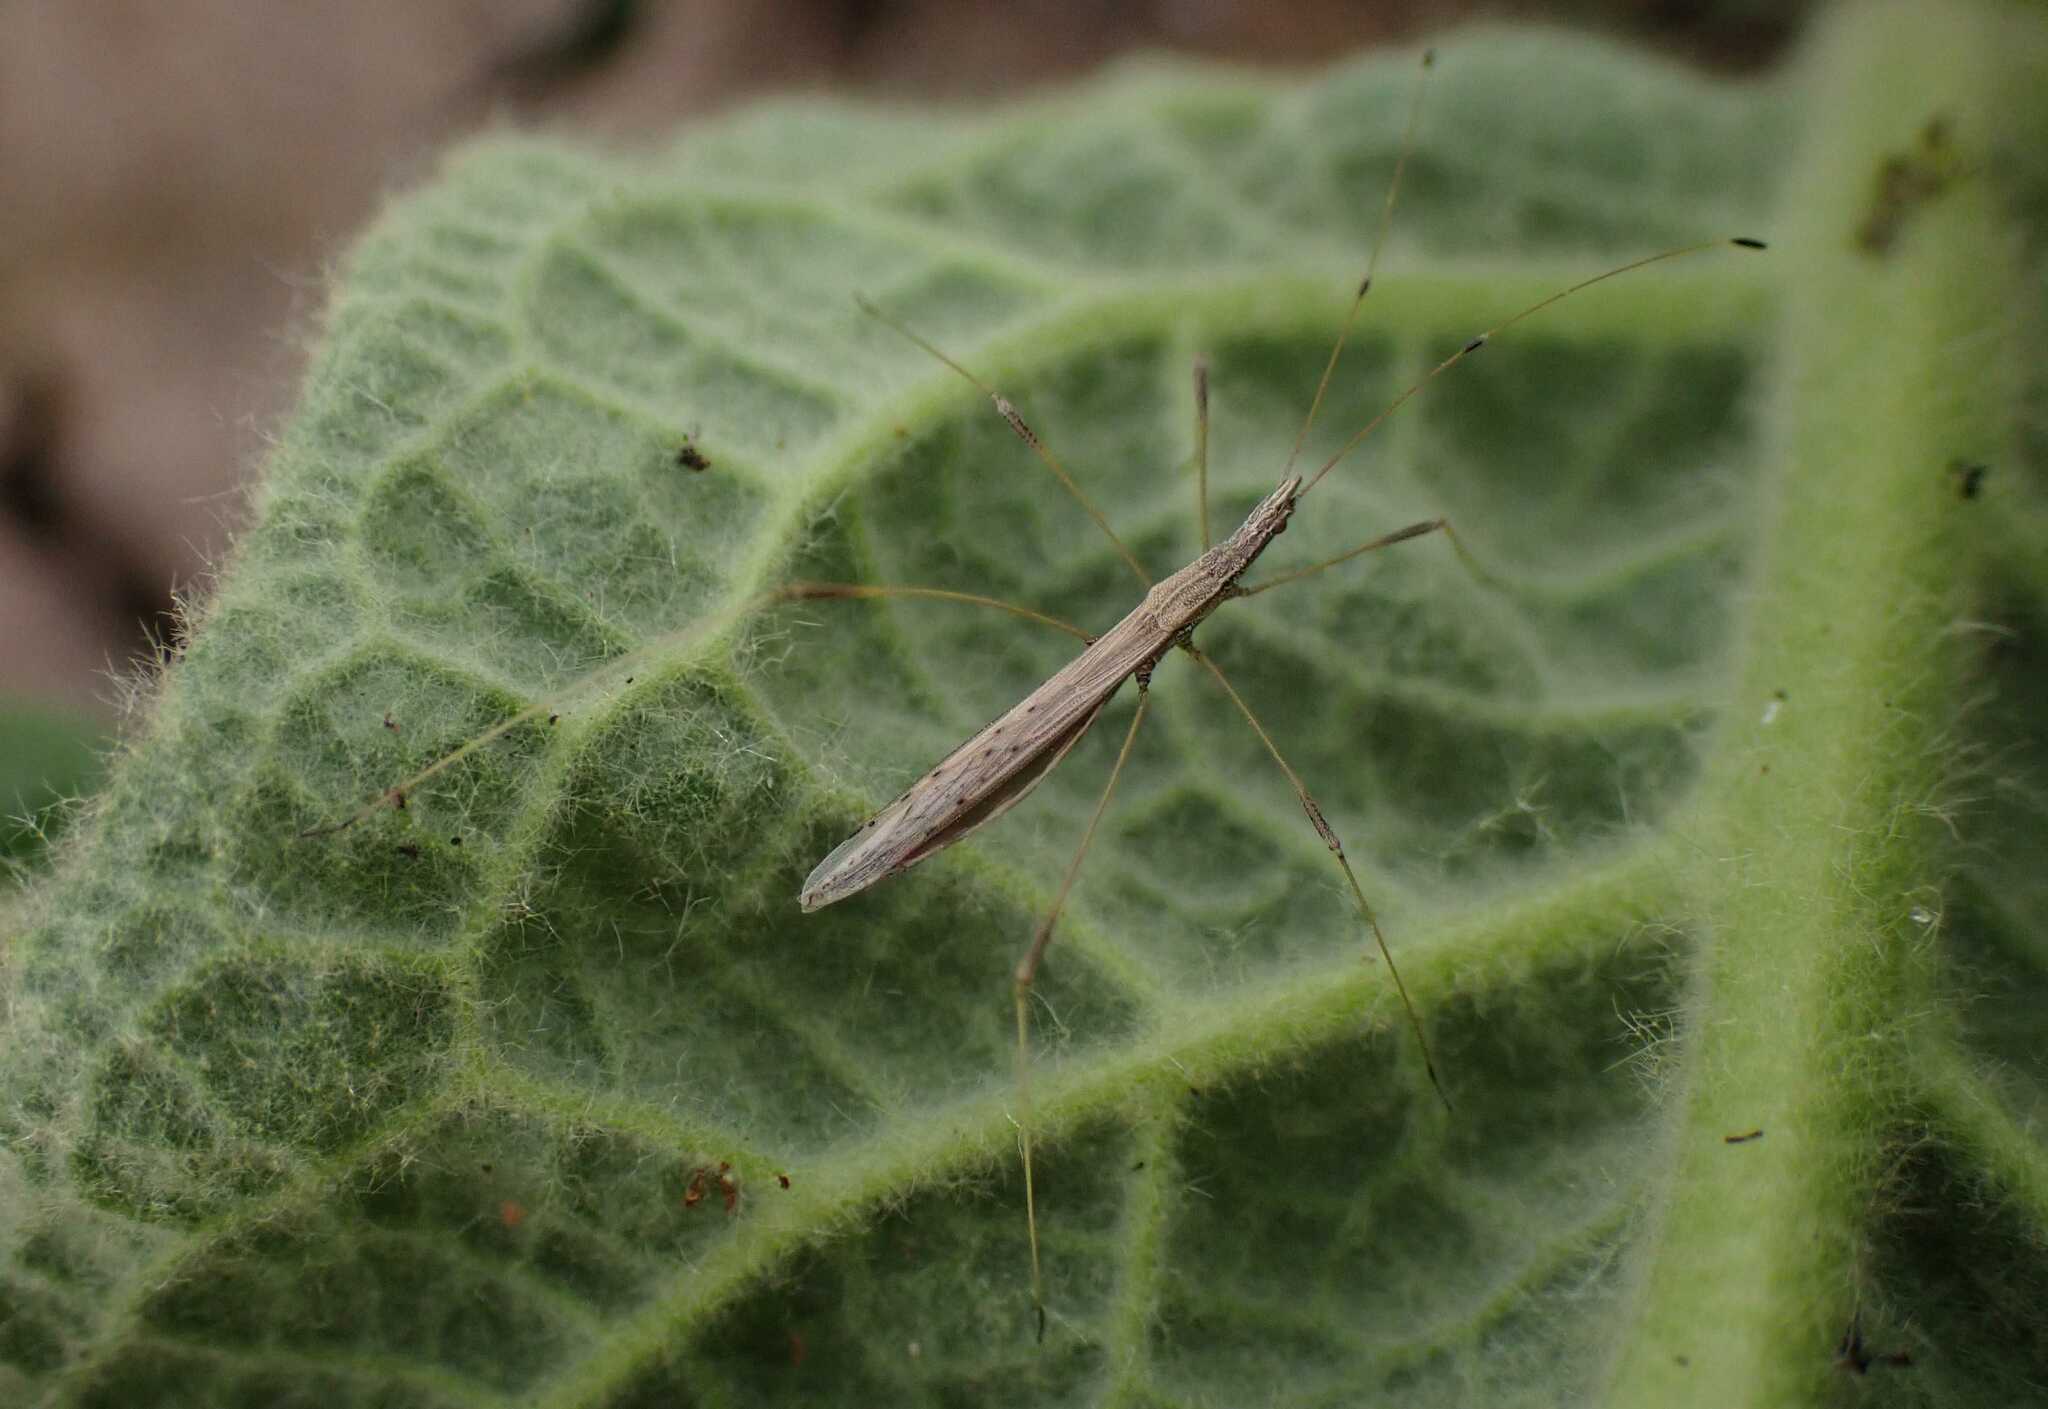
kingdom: Animalia
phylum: Arthropoda
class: Insecta
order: Hemiptera
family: Berytidae
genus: Neides
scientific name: Neides tipularius
